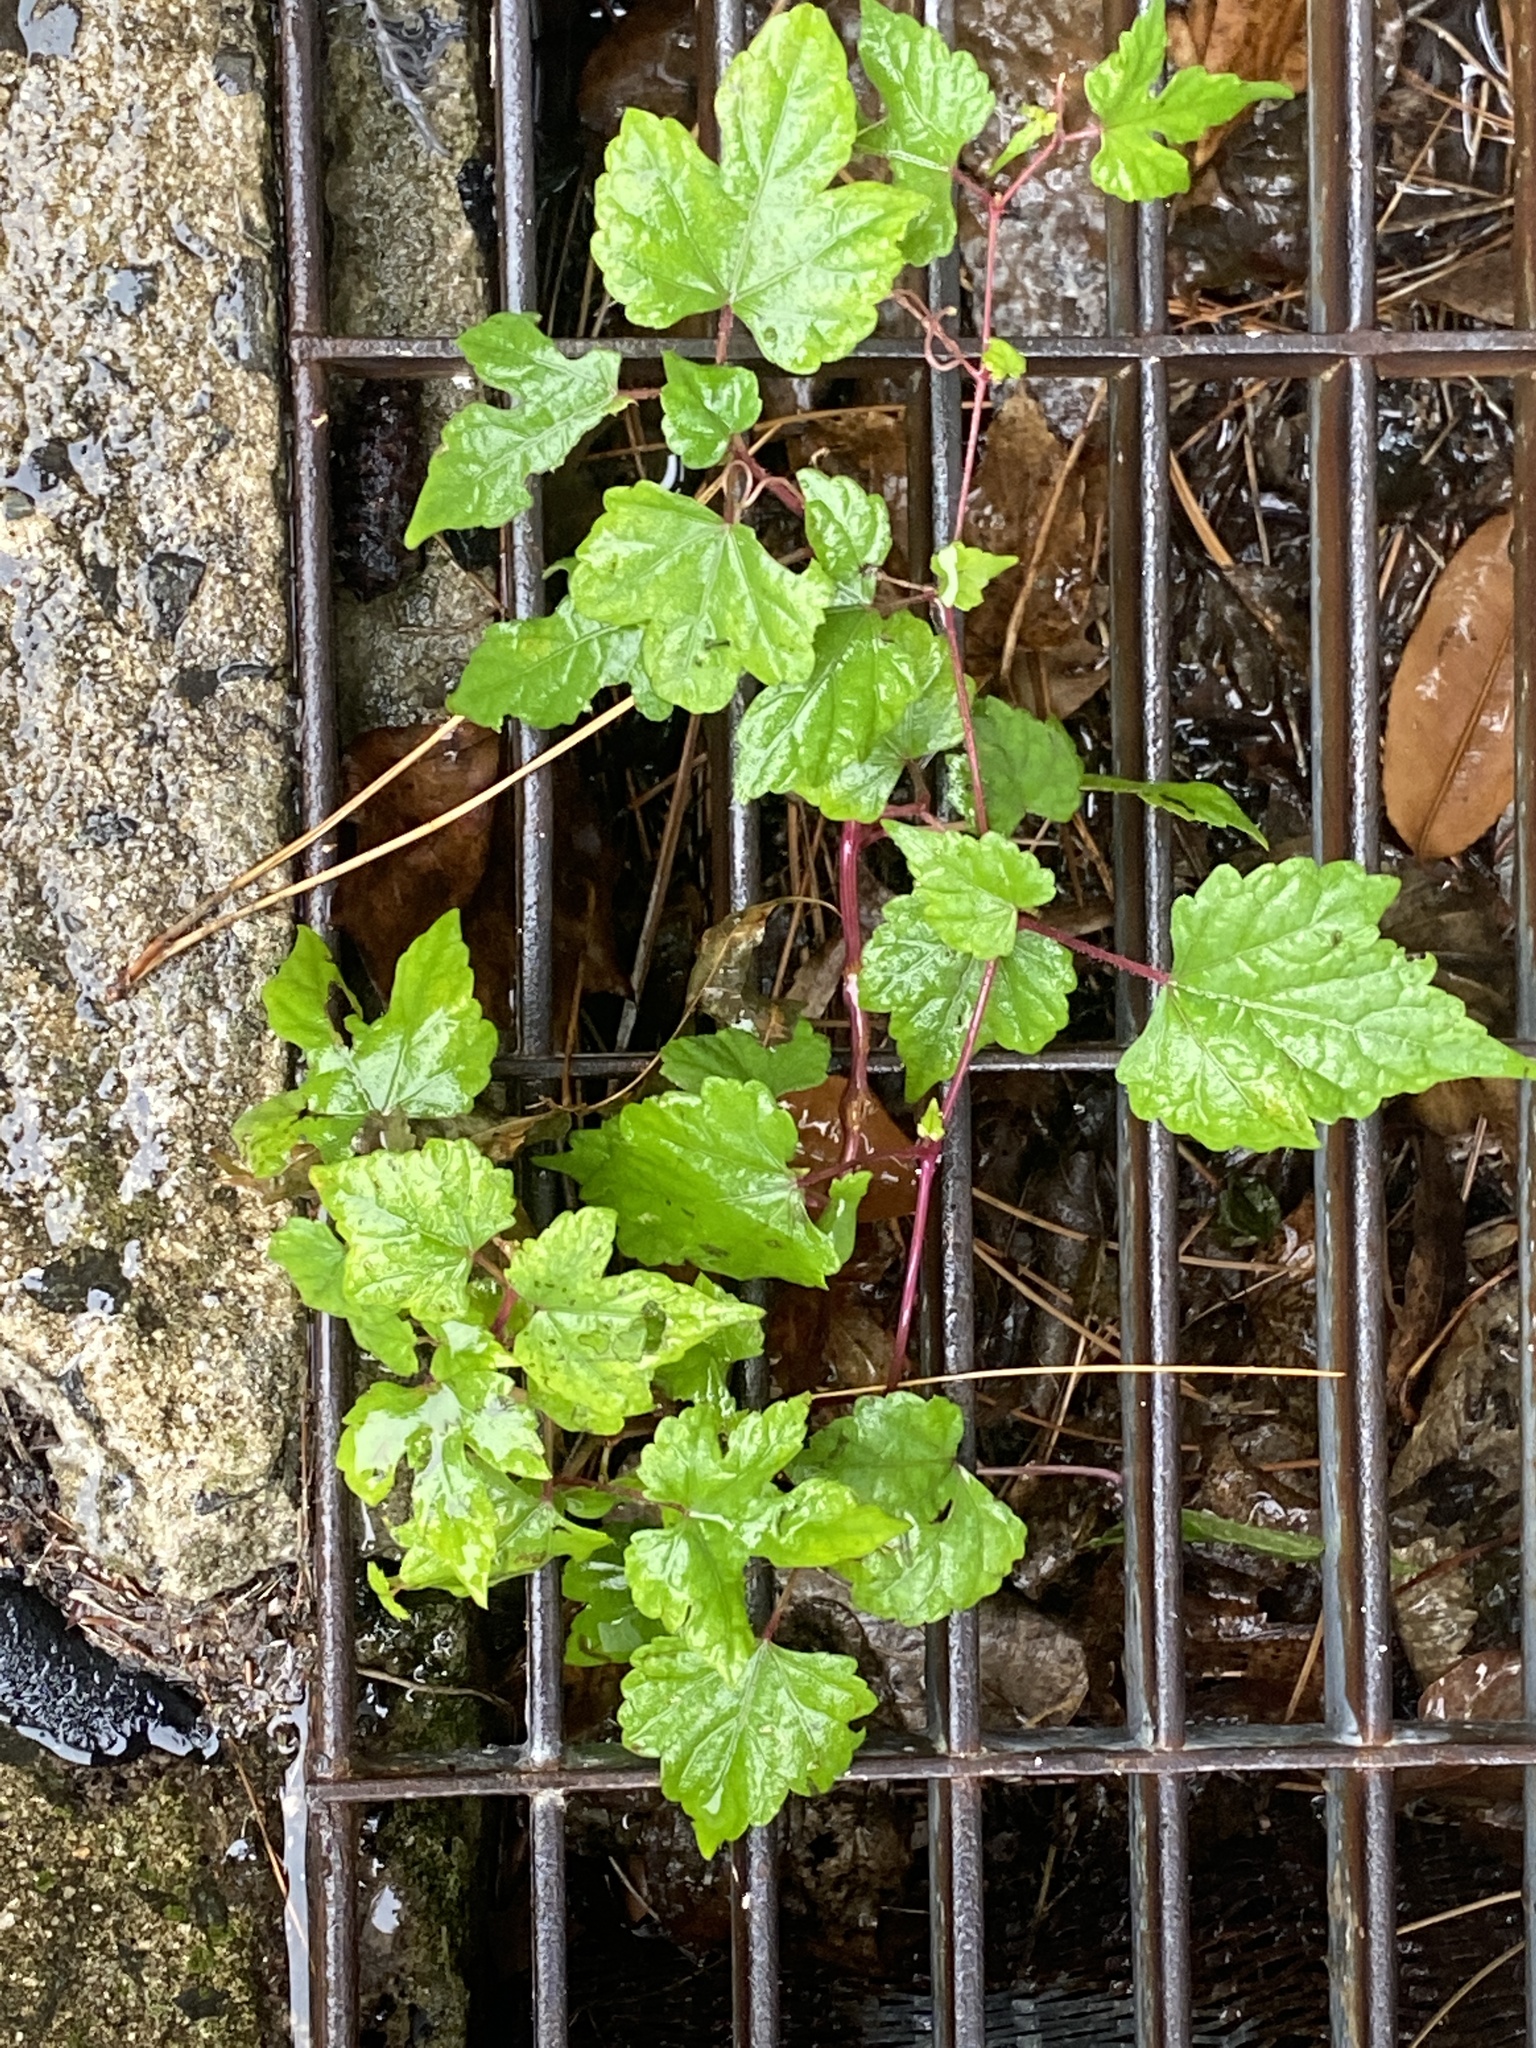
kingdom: Plantae
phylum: Tracheophyta
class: Magnoliopsida
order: Vitales
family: Vitaceae
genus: Ampelopsis
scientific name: Ampelopsis glandulosa
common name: Amur peppervine
